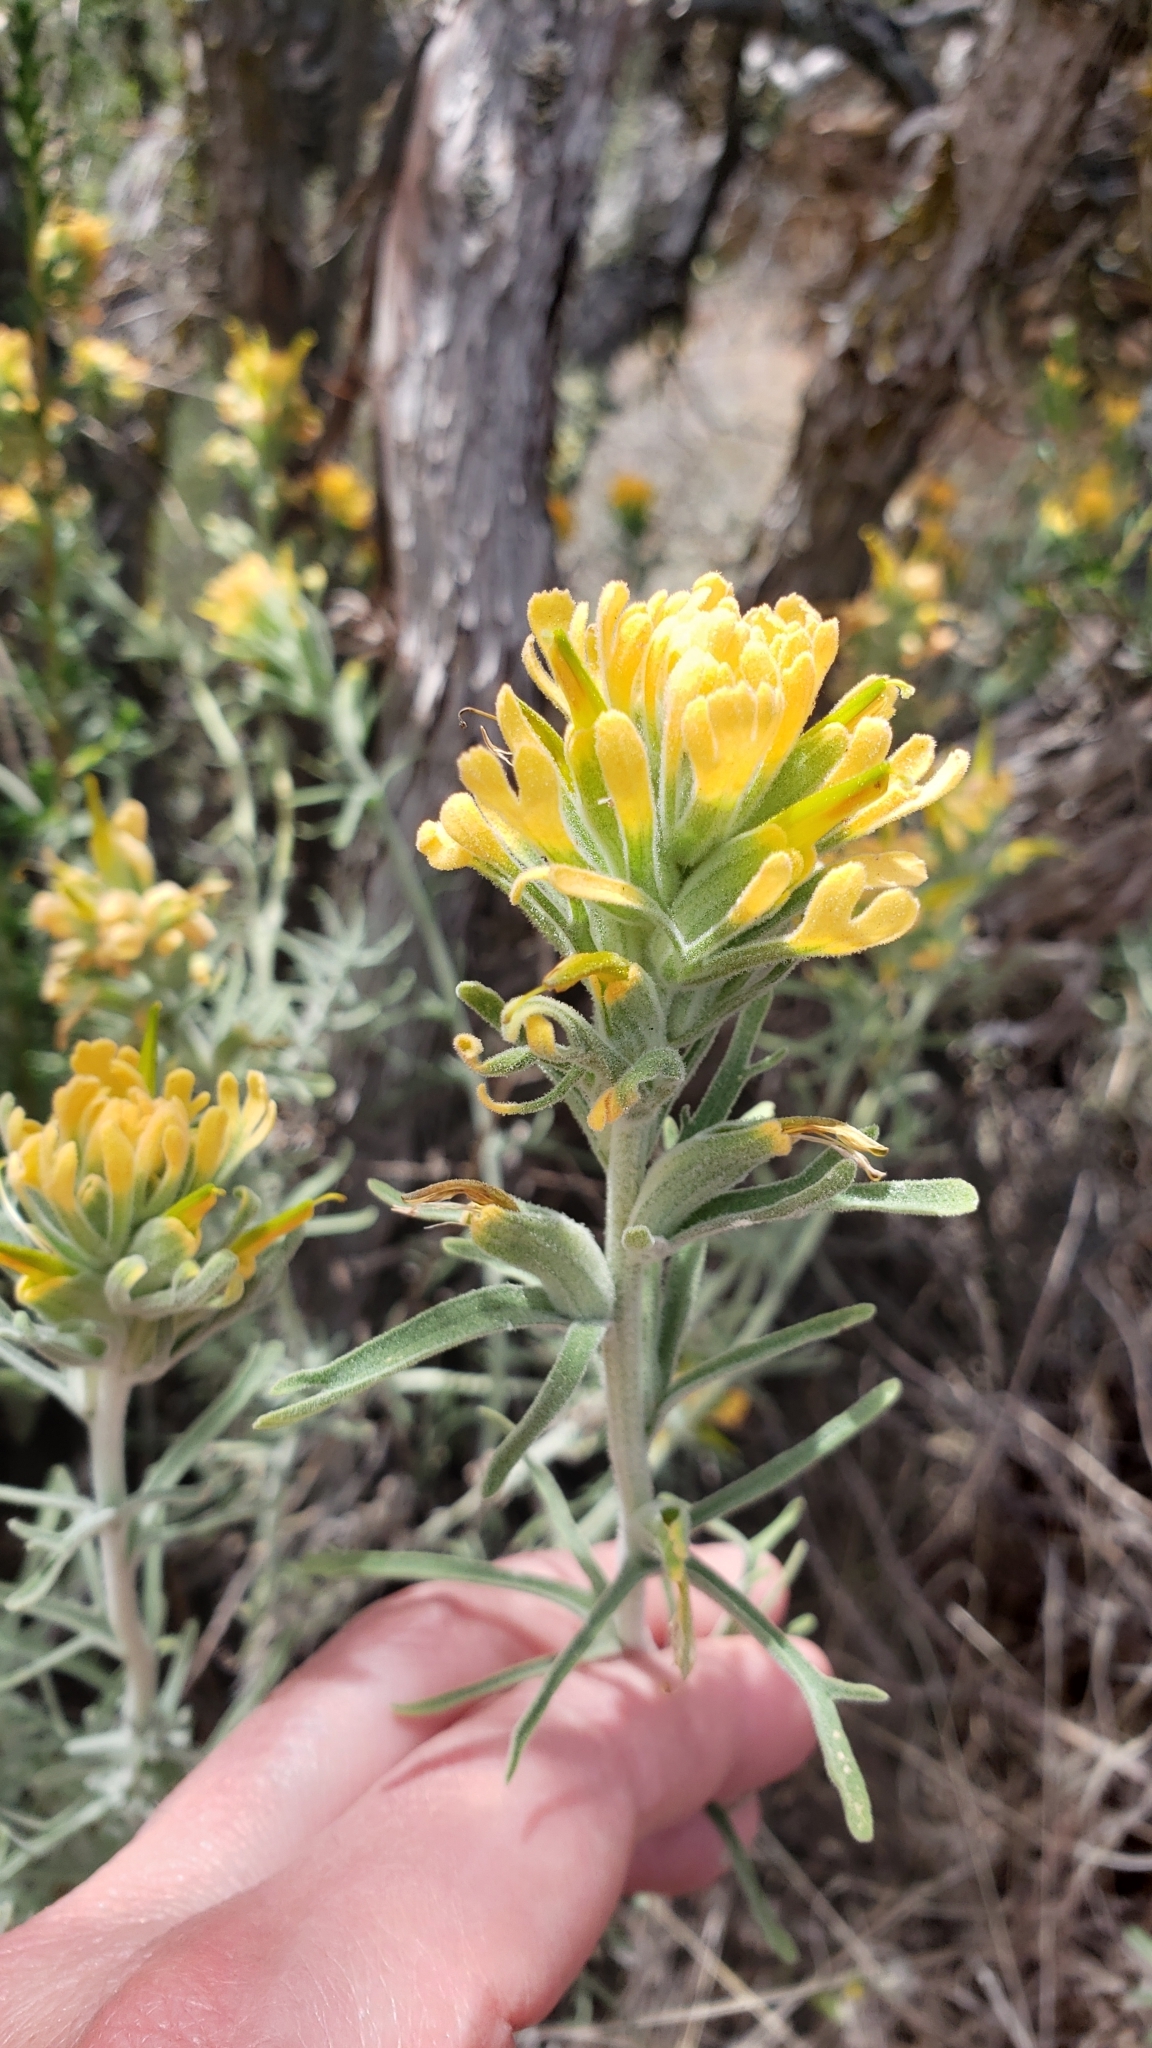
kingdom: Plantae
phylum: Tracheophyta
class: Magnoliopsida
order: Lamiales
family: Orobanchaceae
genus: Castilleja
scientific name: Castilleja foliolosa
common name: Woolly indian paintbrush
